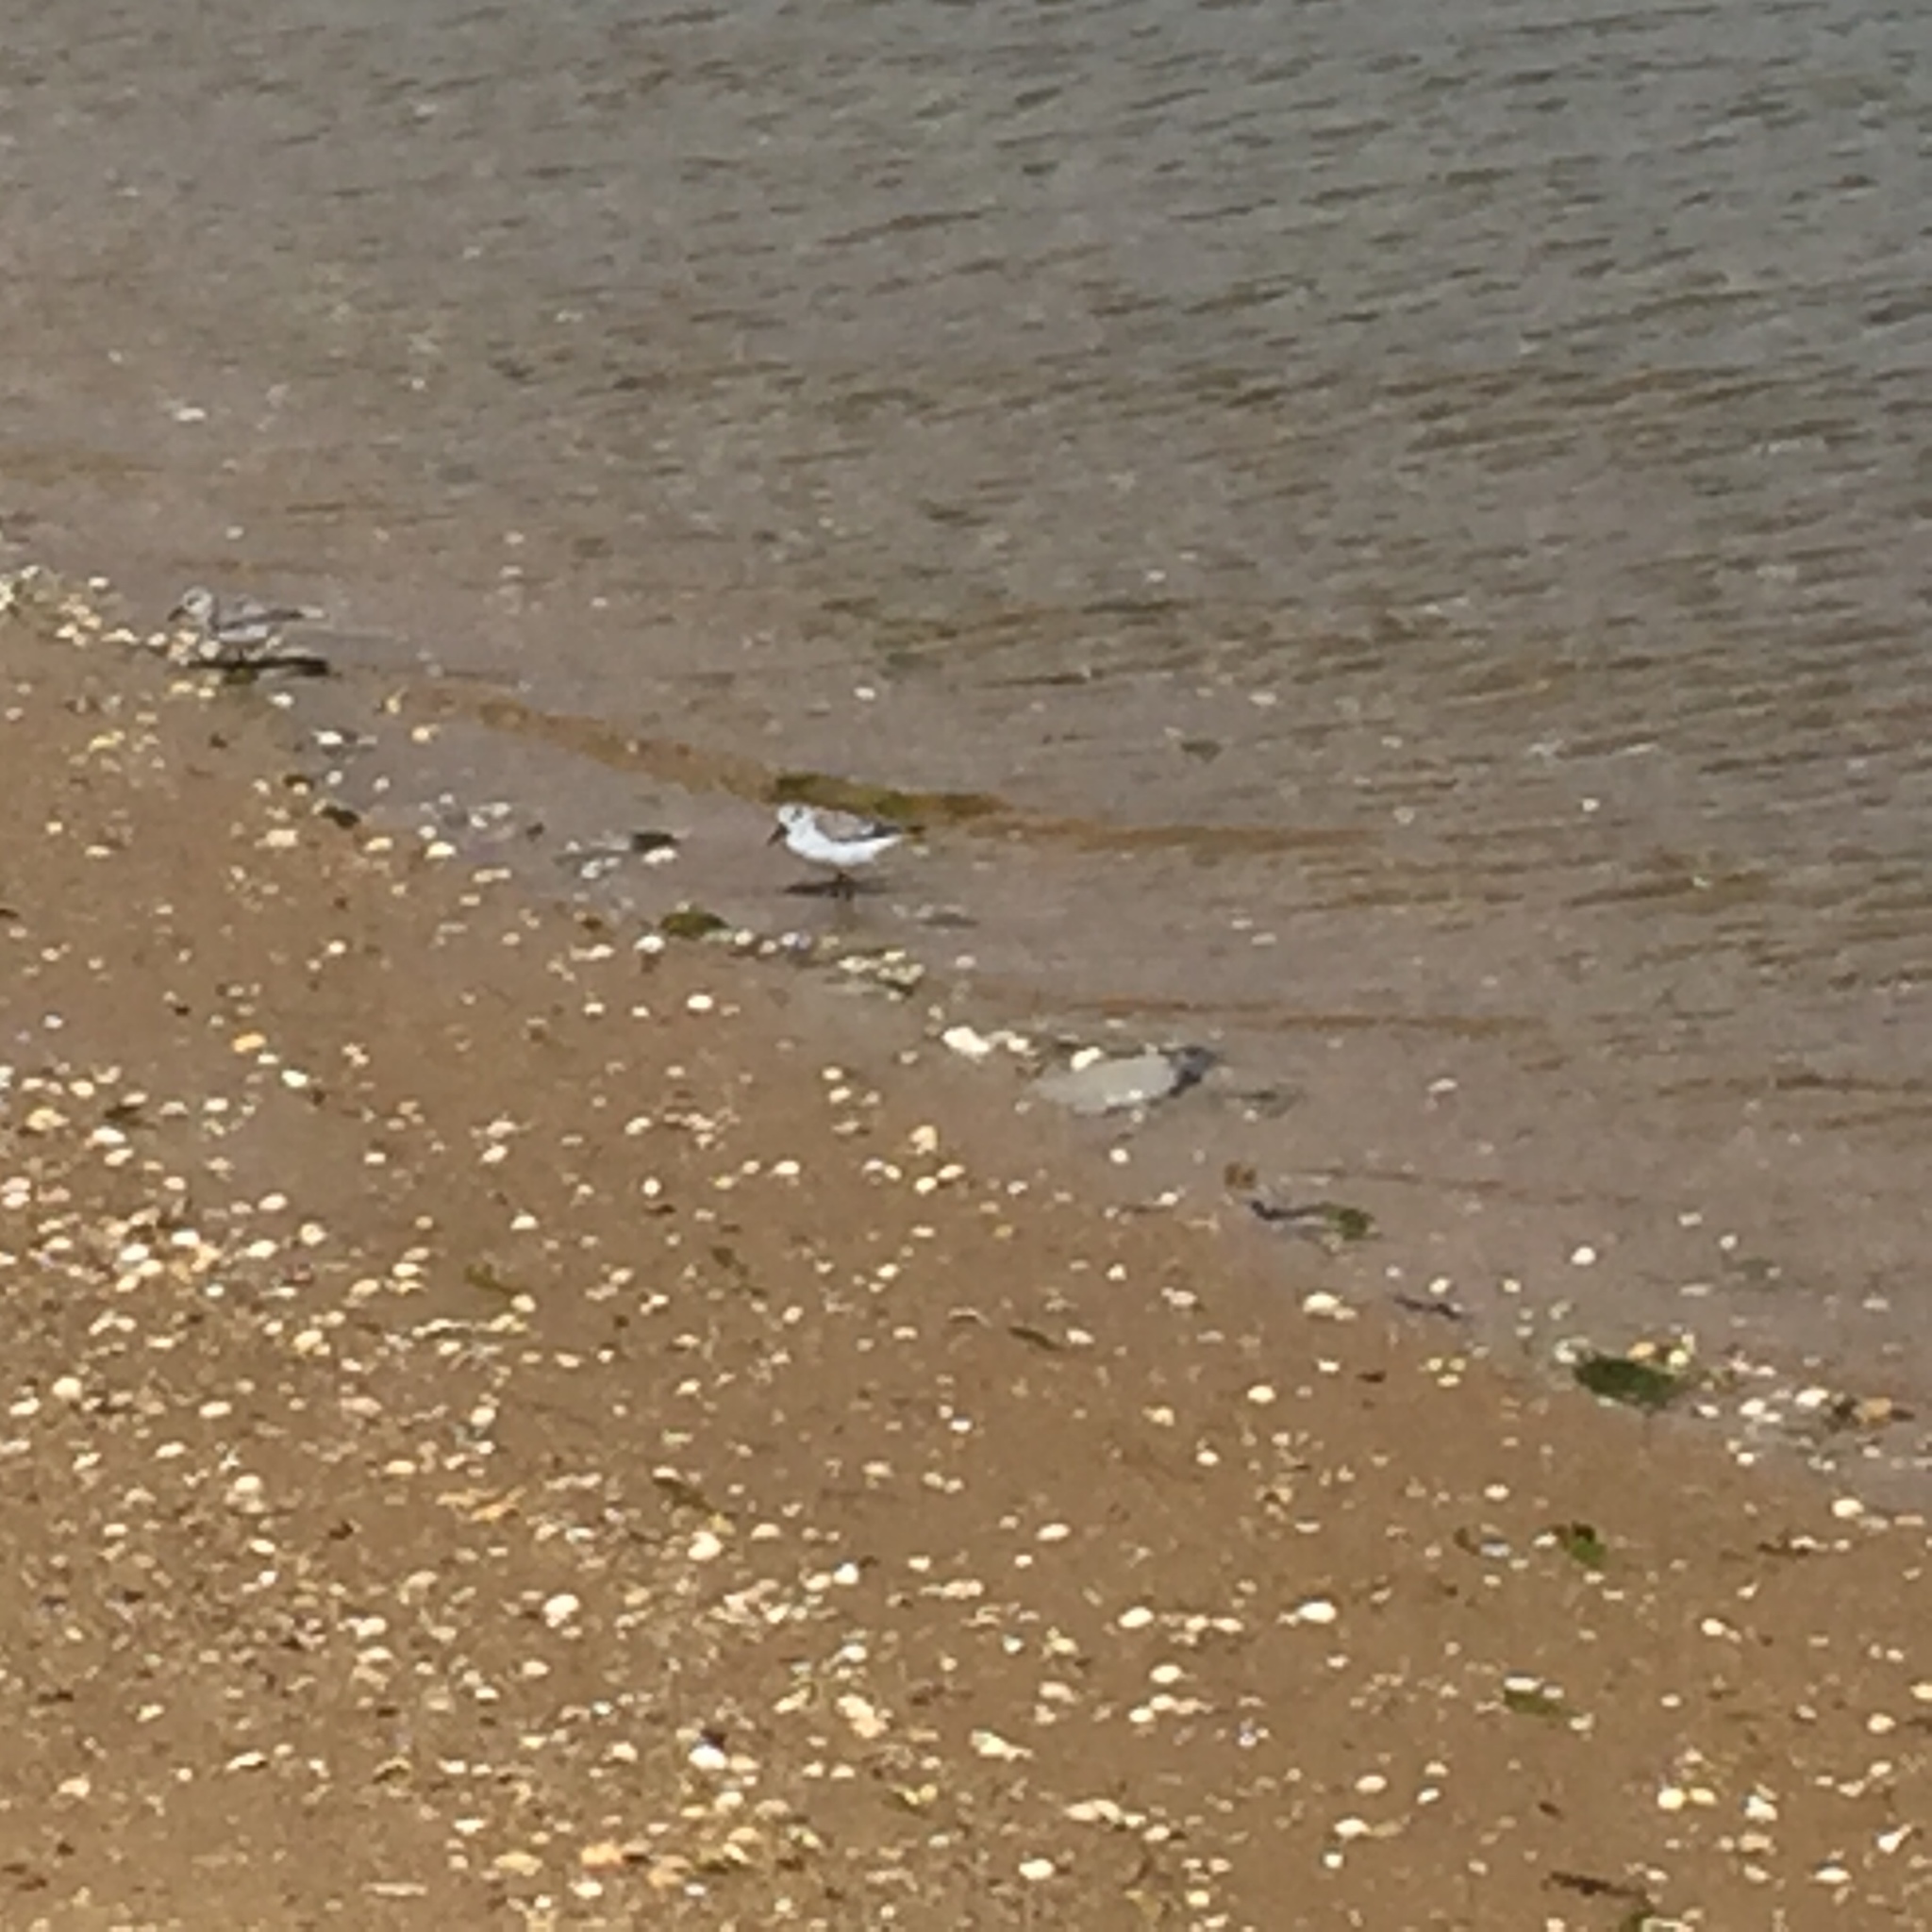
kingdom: Animalia
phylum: Chordata
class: Aves
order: Charadriiformes
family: Scolopacidae
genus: Calidris
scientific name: Calidris alba
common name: Sanderling
